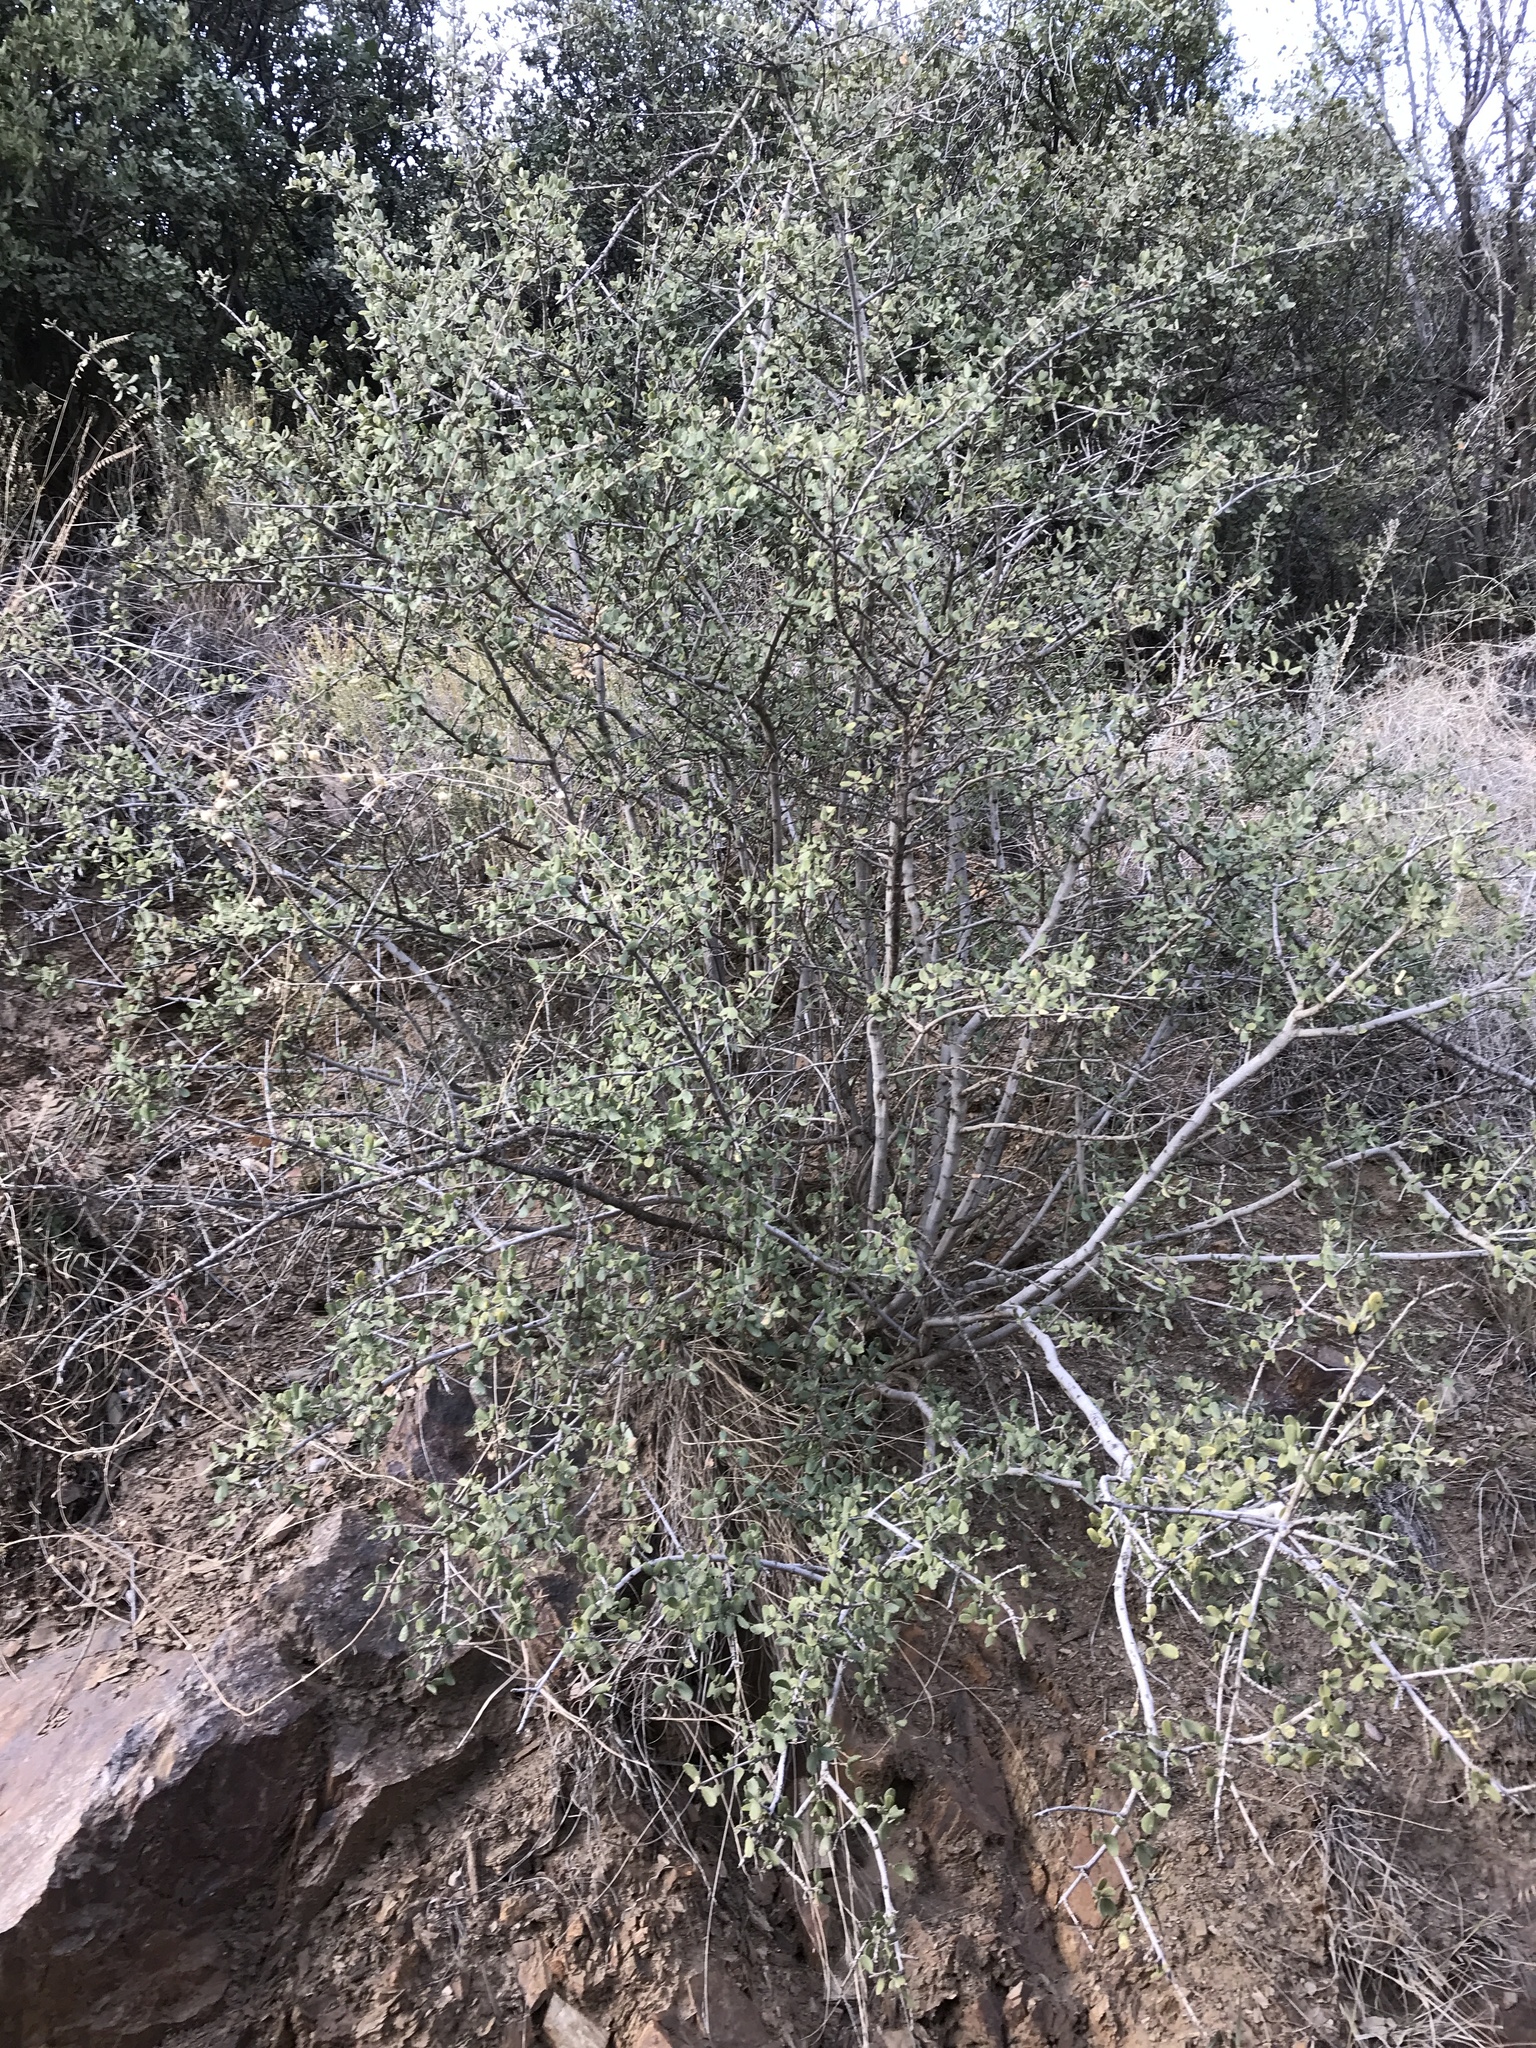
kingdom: Plantae
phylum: Tracheophyta
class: Magnoliopsida
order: Rosales
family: Rhamnaceae
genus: Ceanothus
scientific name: Ceanothus pauciflorus
